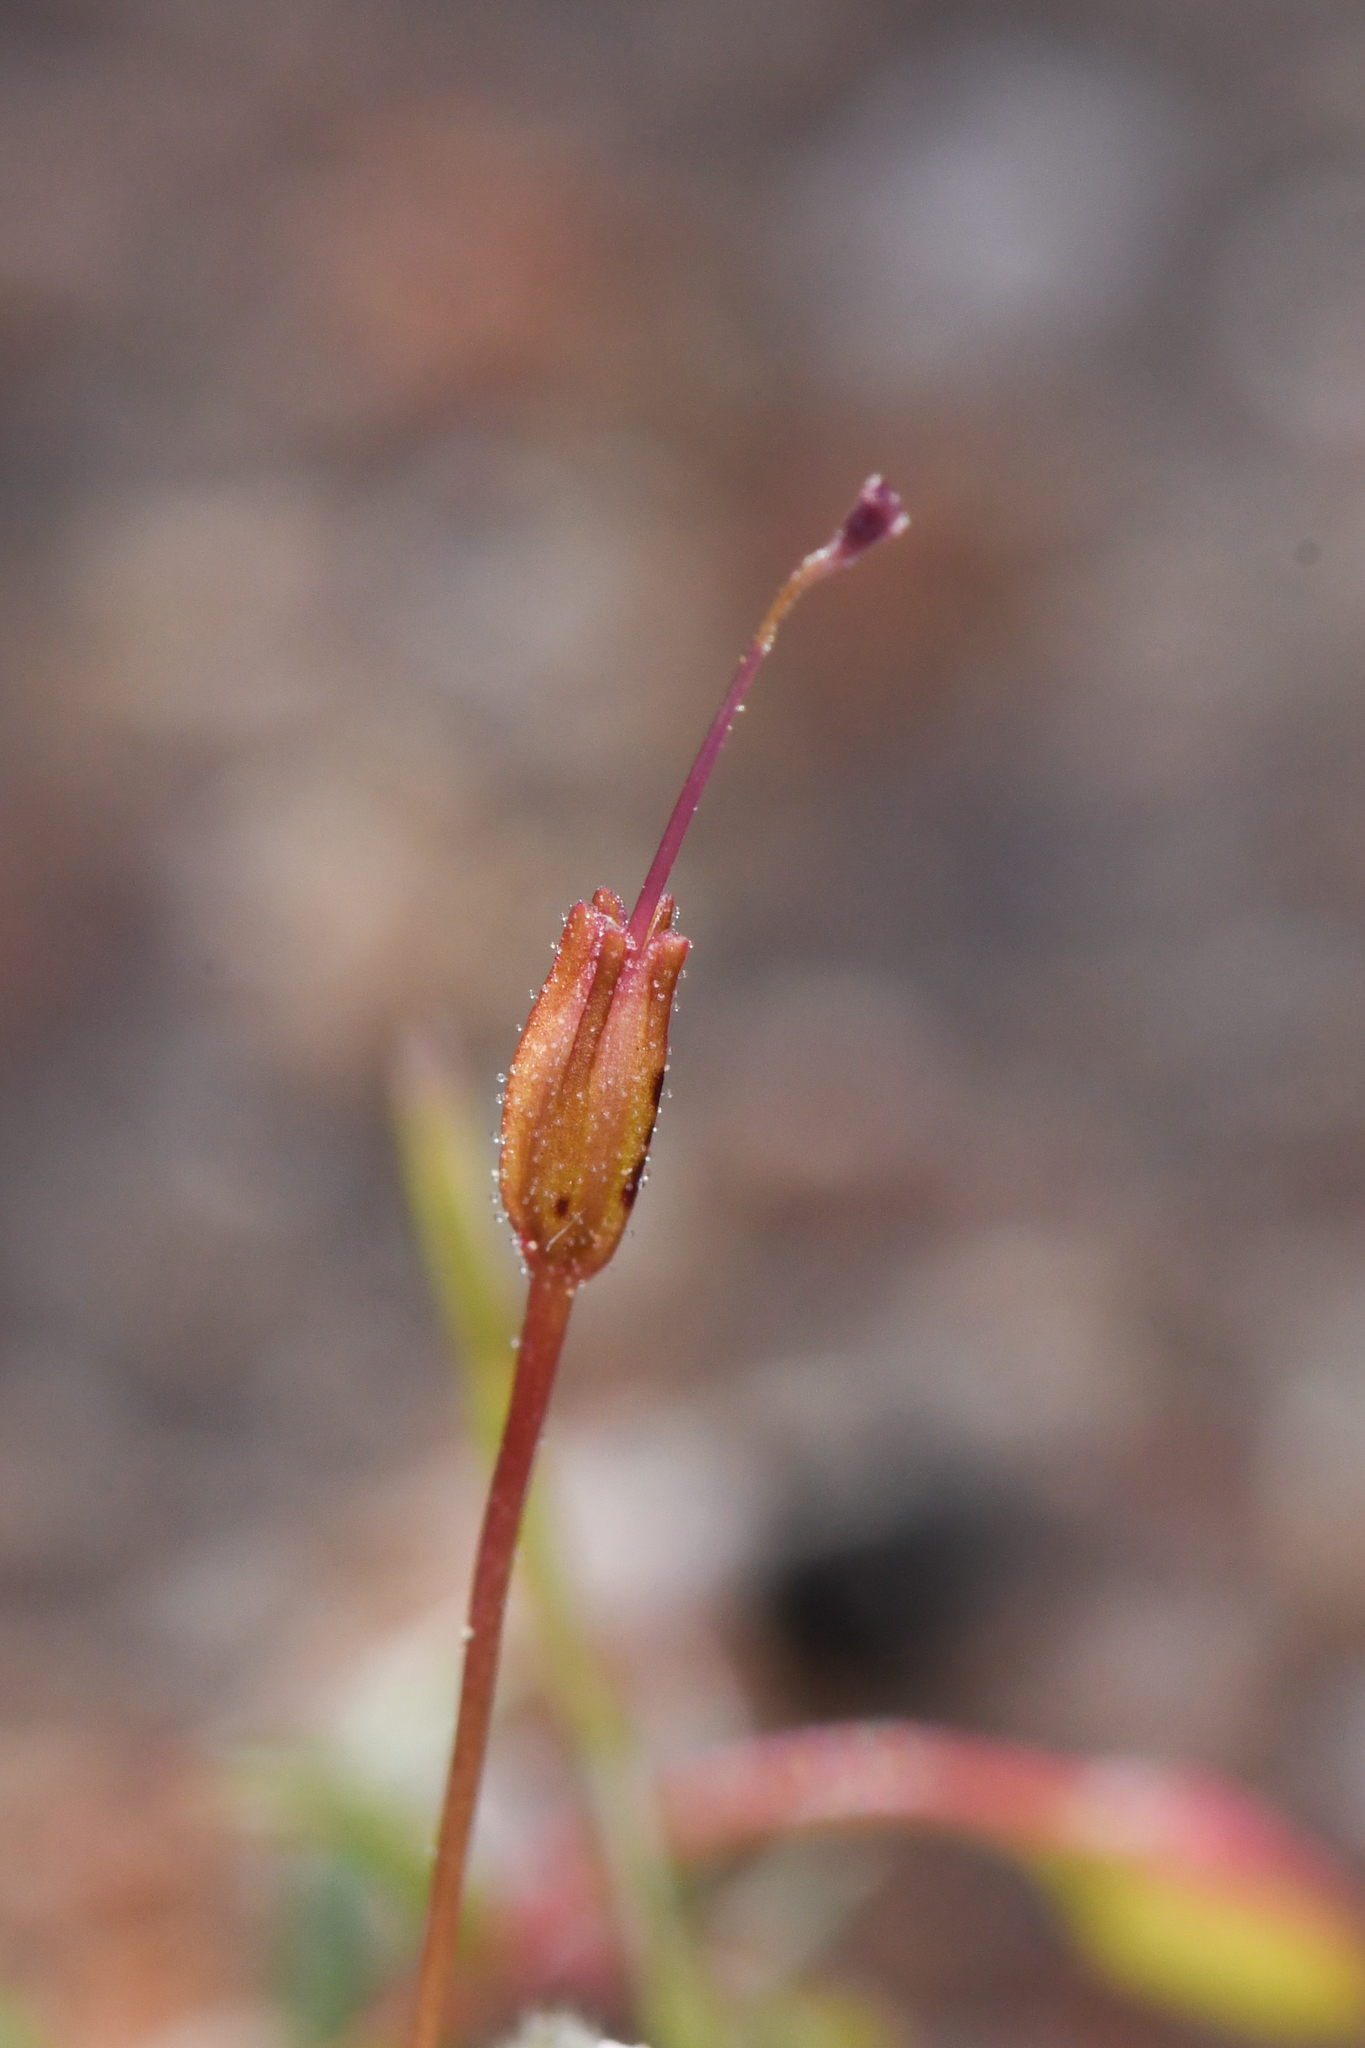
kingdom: Plantae
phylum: Tracheophyta
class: Magnoliopsida
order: Lamiales
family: Phrymaceae
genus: Erythranthe
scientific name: Erythranthe hardhamiae
